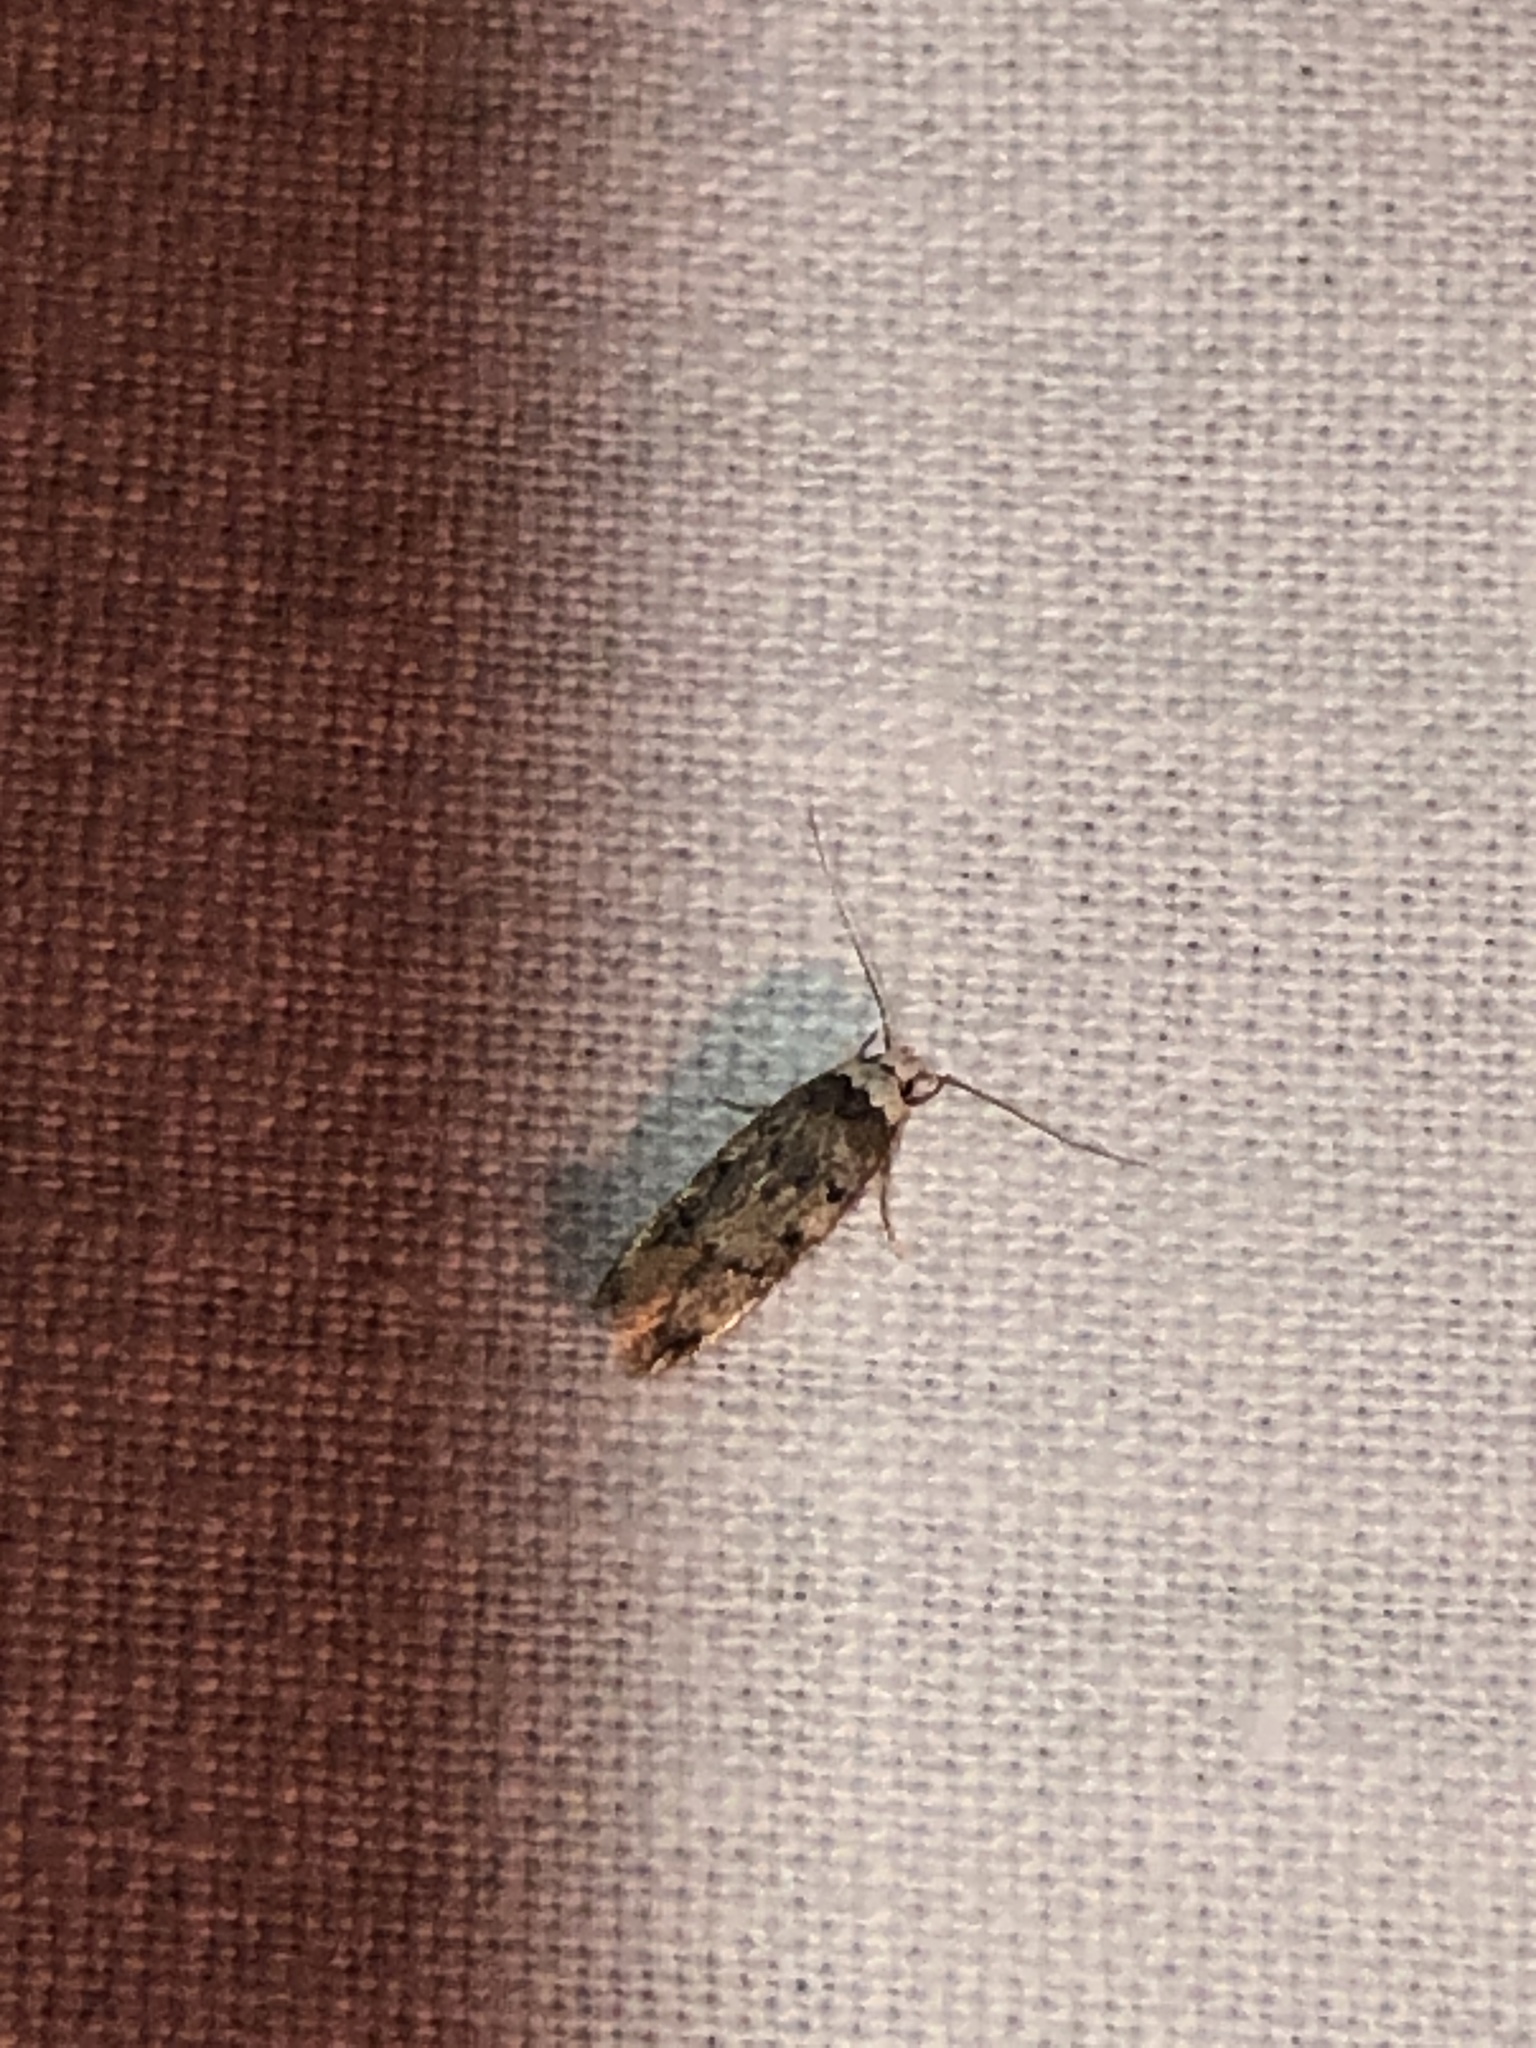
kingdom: Animalia
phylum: Arthropoda
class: Insecta
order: Lepidoptera
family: Oecophoridae
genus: Endrosis
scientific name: Endrosis sarcitrella
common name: White-shouldered house moth
